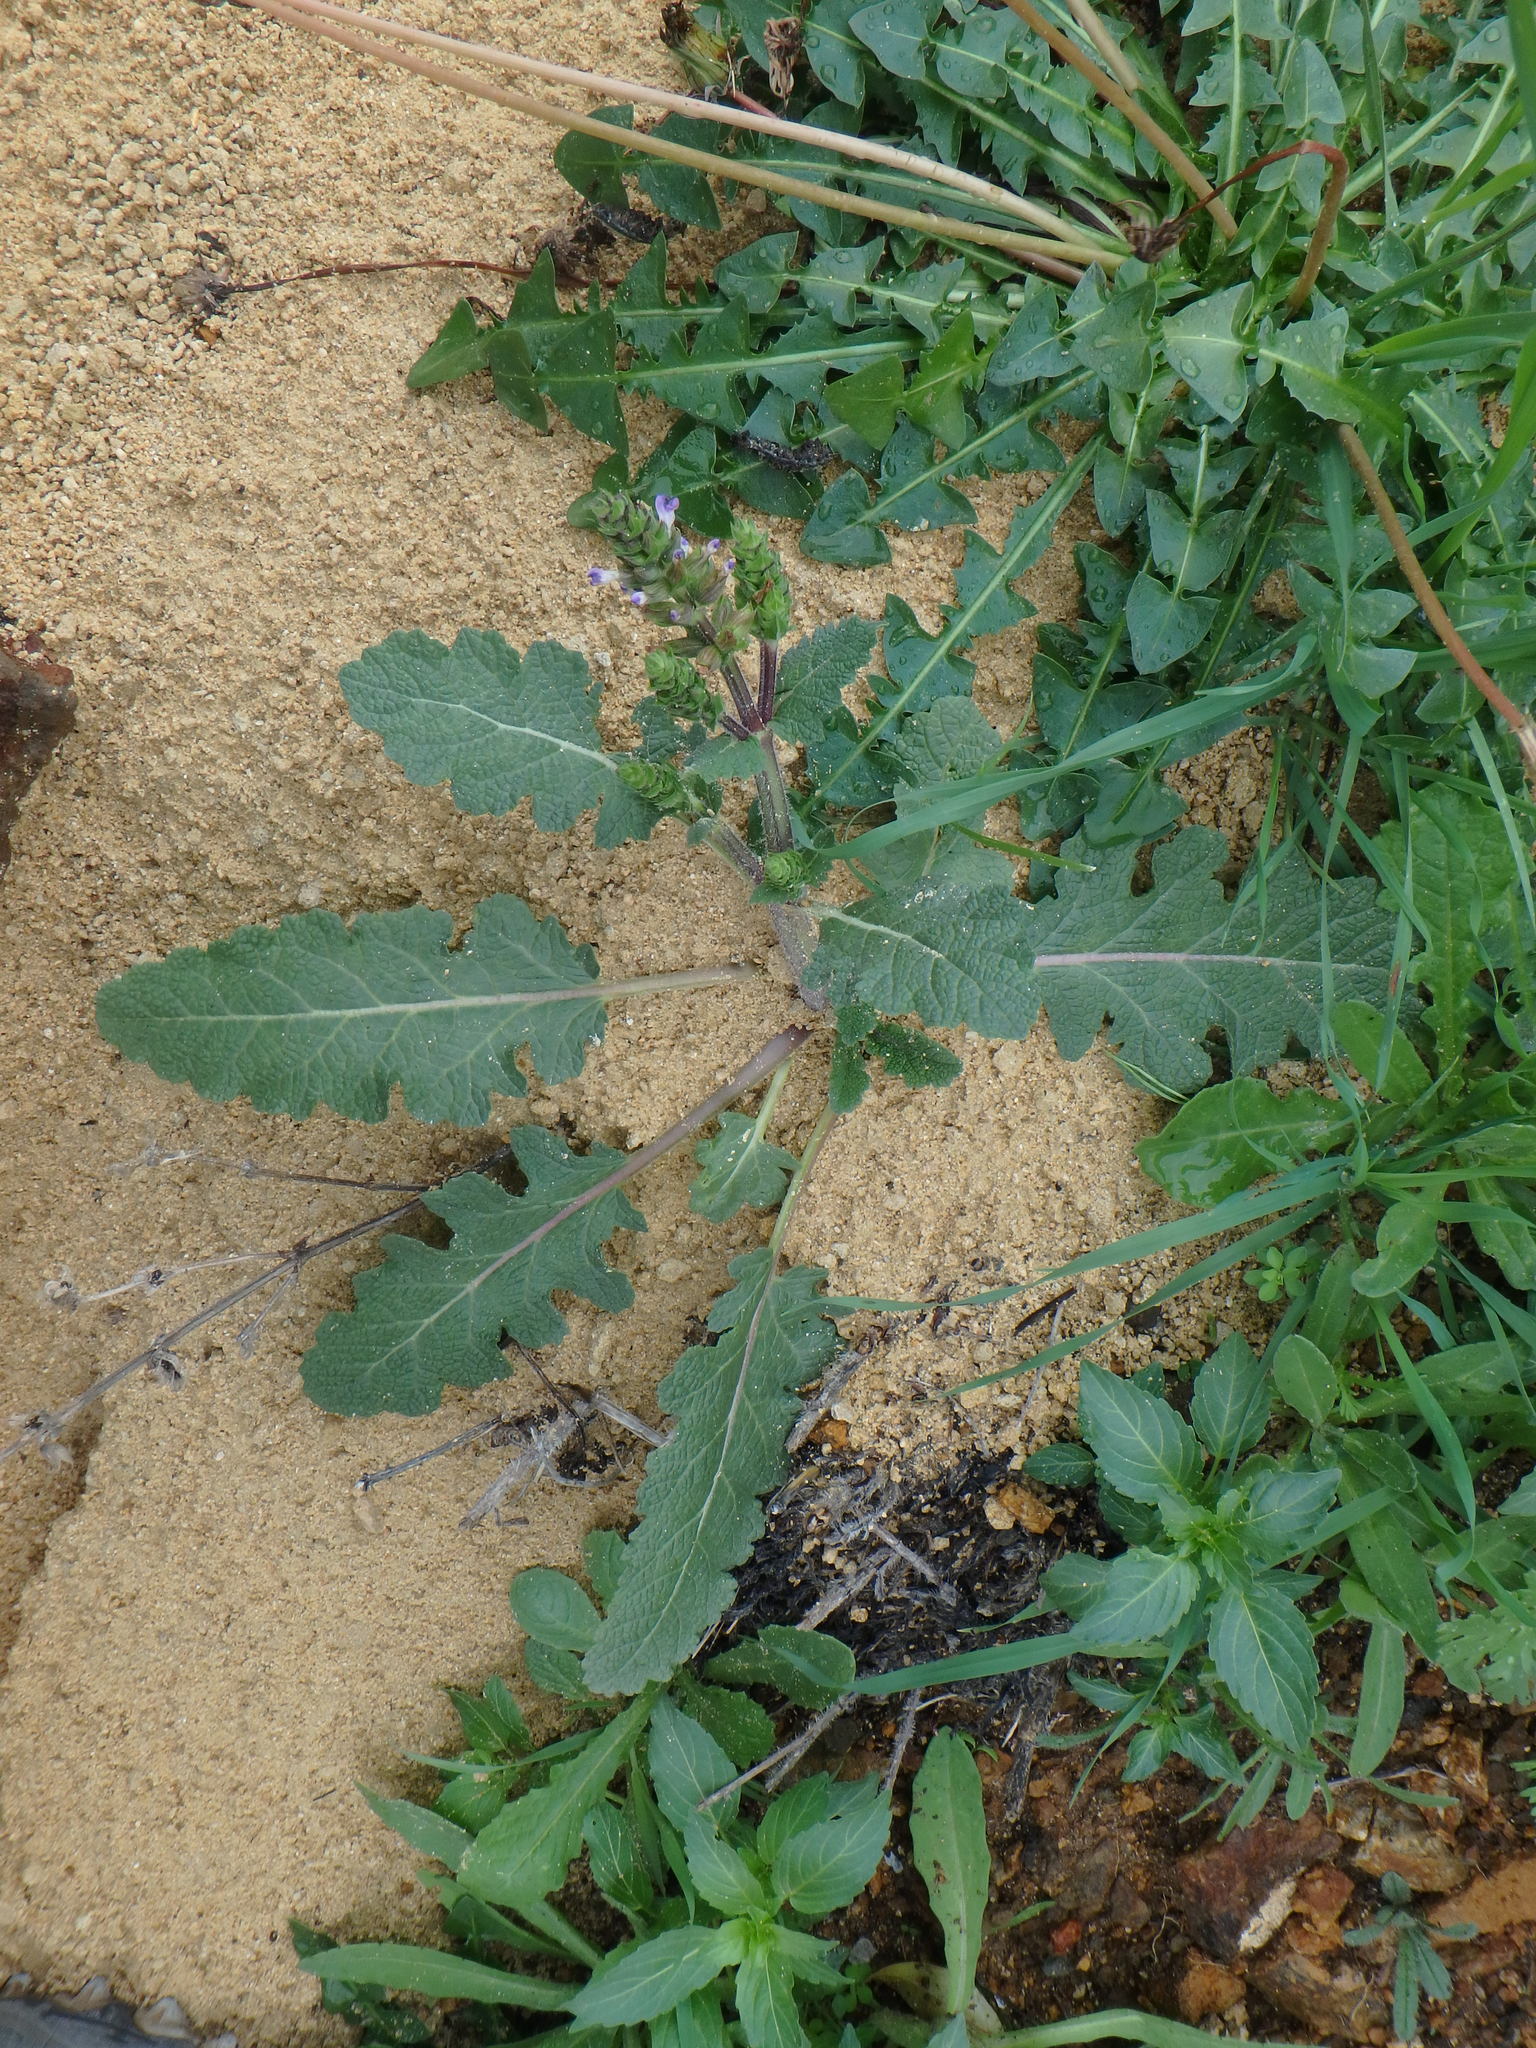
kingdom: Plantae
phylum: Tracheophyta
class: Magnoliopsida
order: Lamiales
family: Lamiaceae
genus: Salvia
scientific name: Salvia verbenaca
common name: Wild clary
